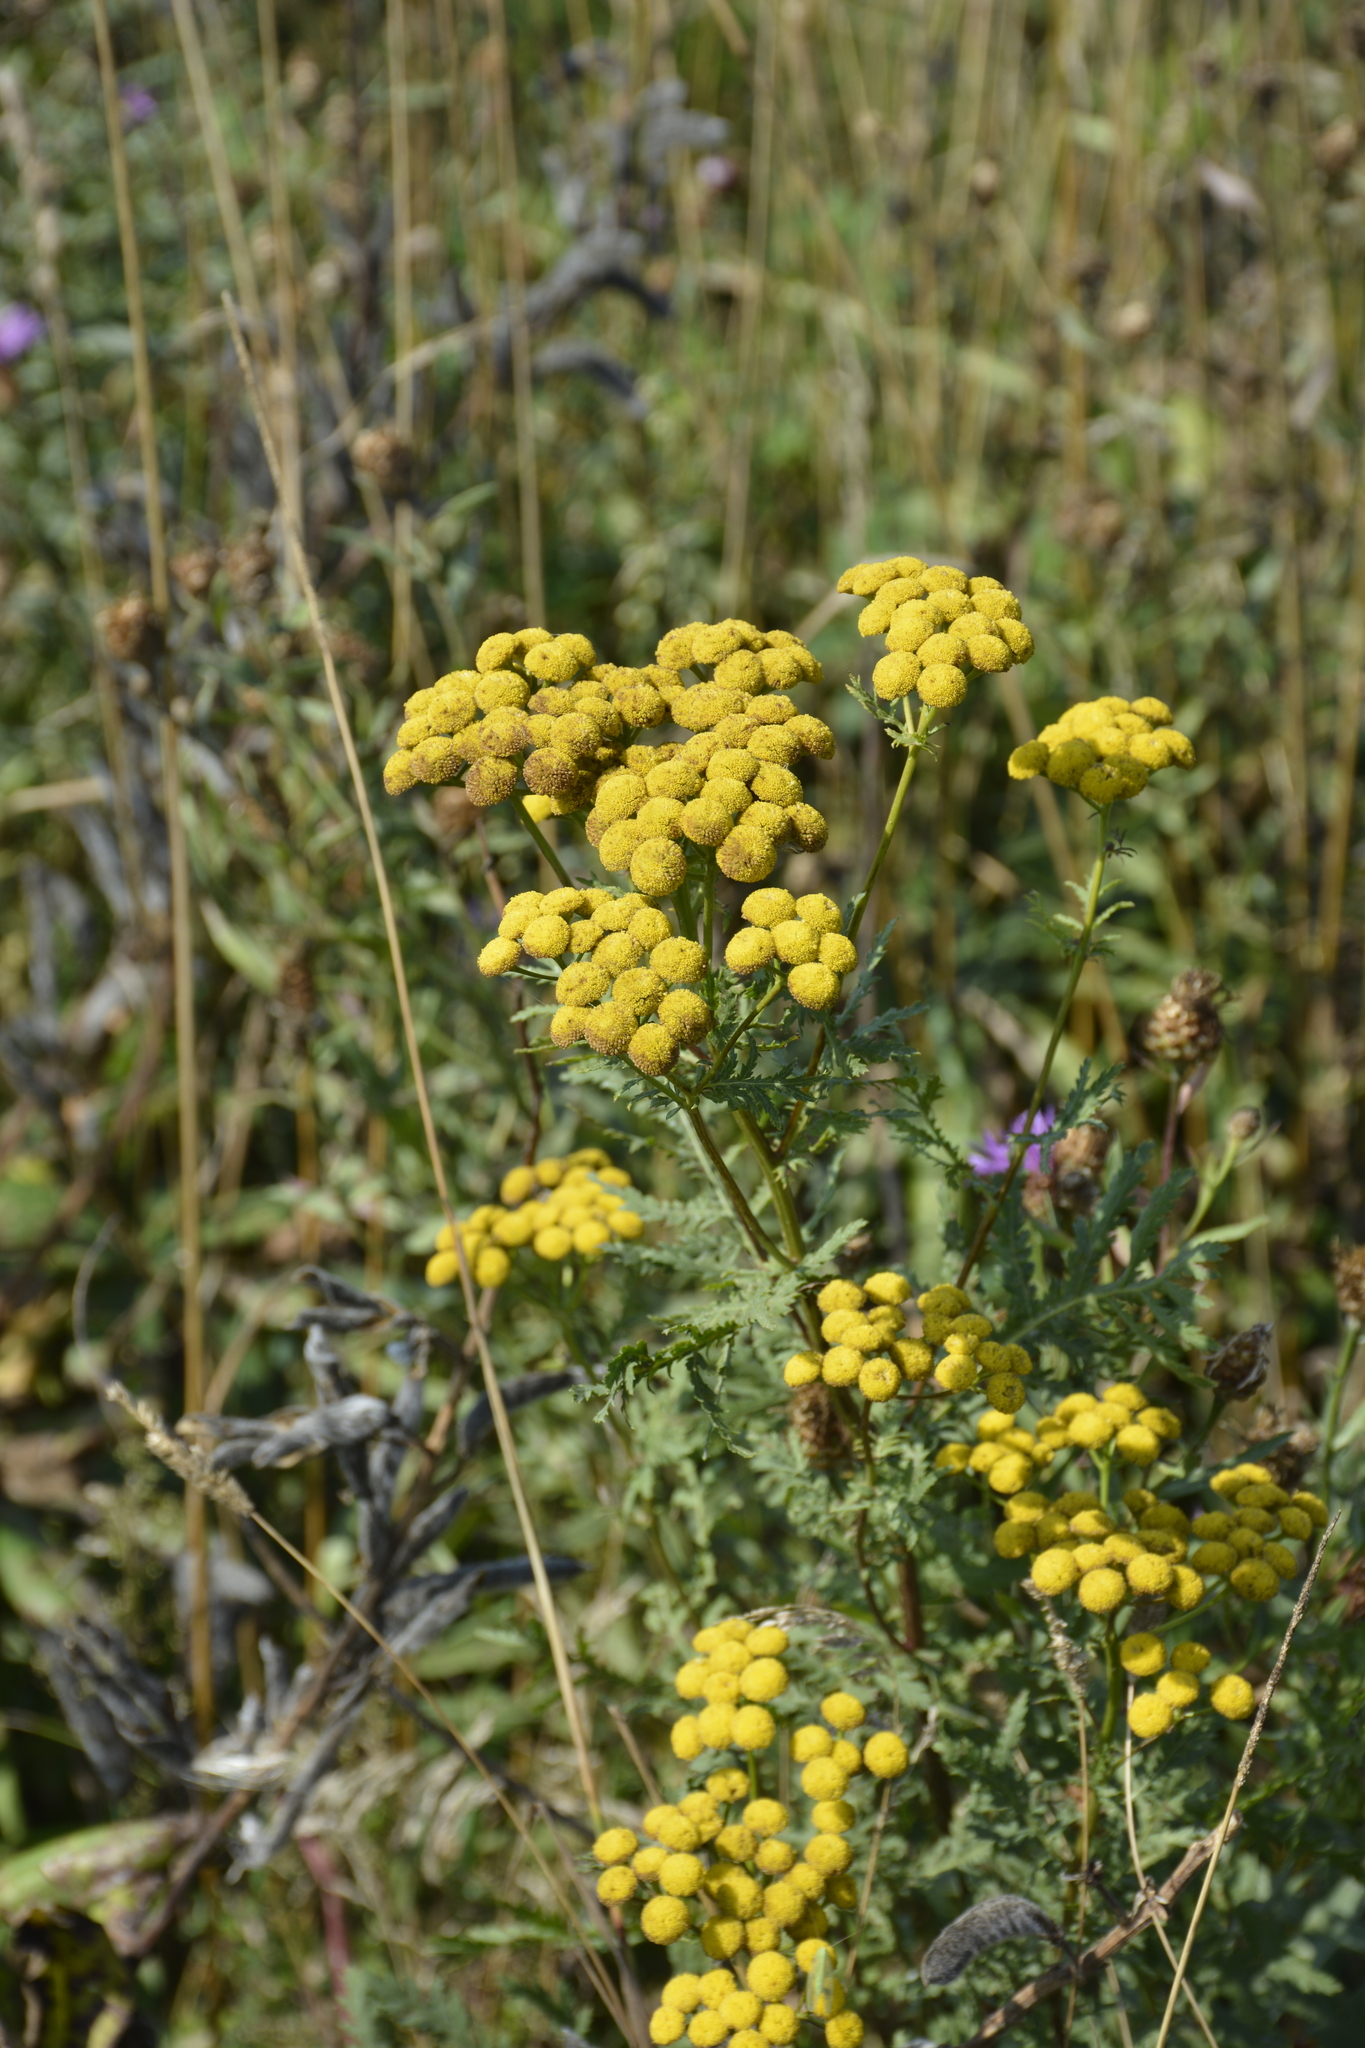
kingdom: Plantae
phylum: Tracheophyta
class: Magnoliopsida
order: Asterales
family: Asteraceae
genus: Tanacetum
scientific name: Tanacetum vulgare
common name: Common tansy
